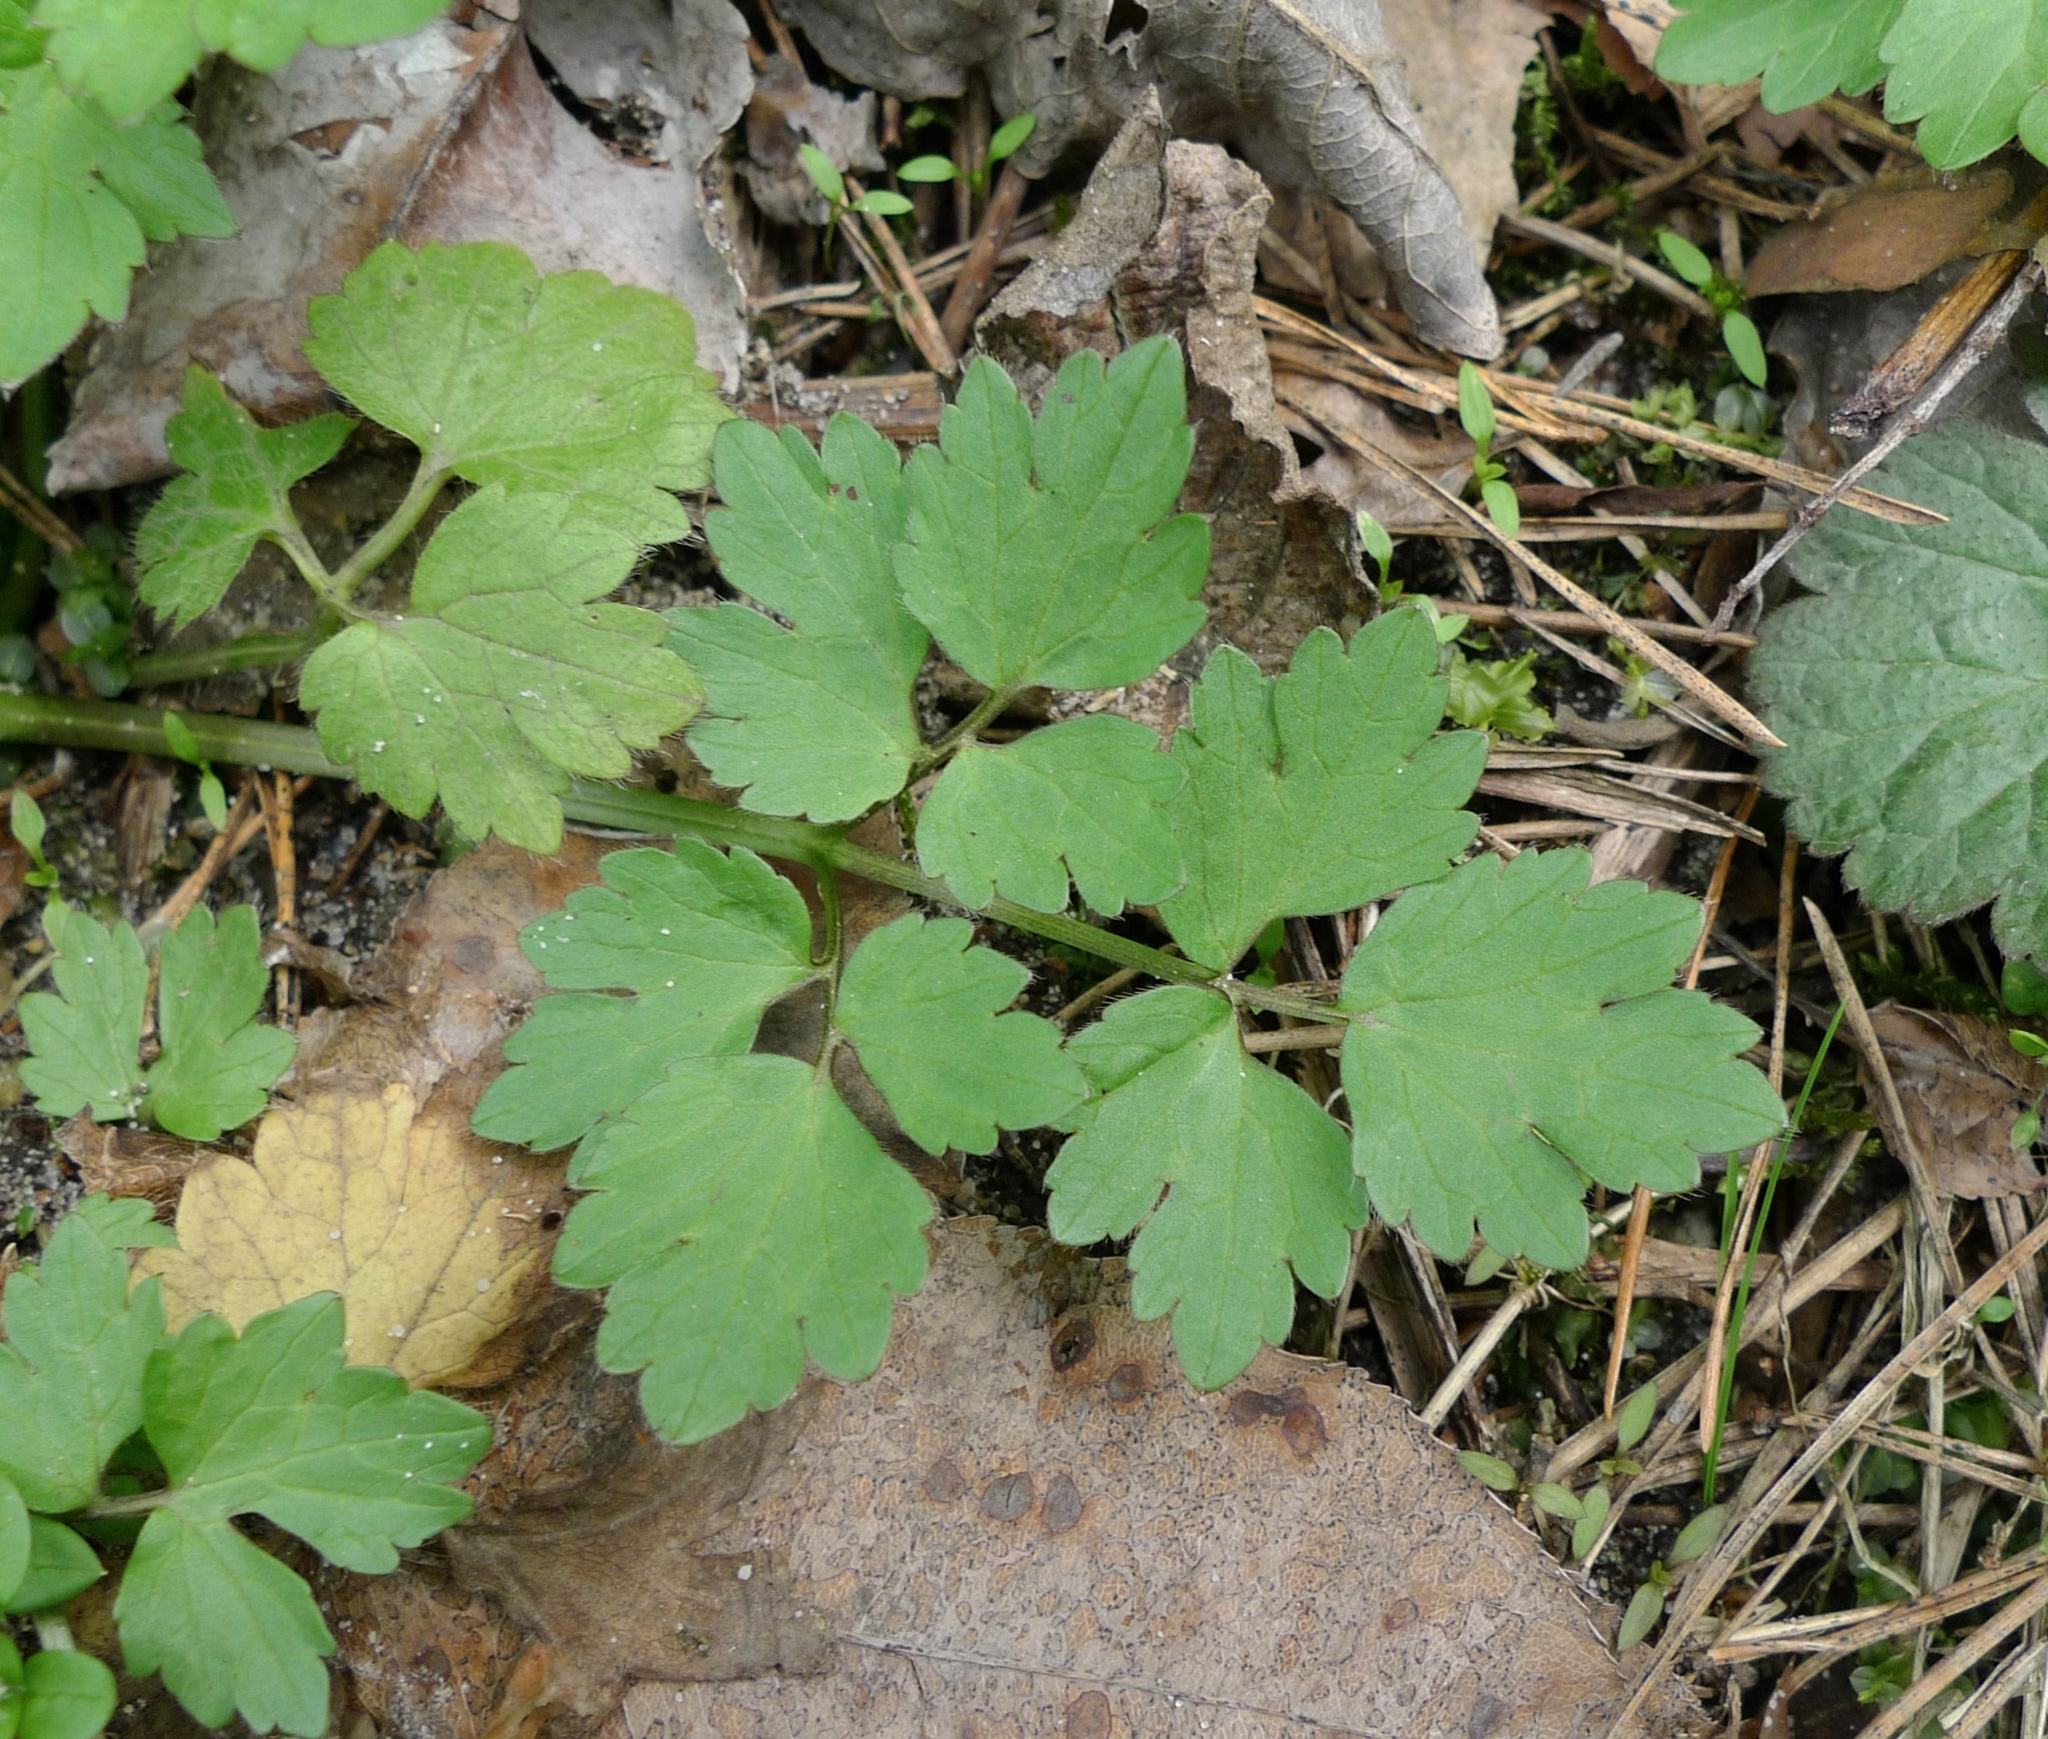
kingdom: Plantae
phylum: Tracheophyta
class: Magnoliopsida
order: Ranunculales
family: Ranunculaceae
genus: Ranunculus
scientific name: Ranunculus repens
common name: Creeping buttercup
